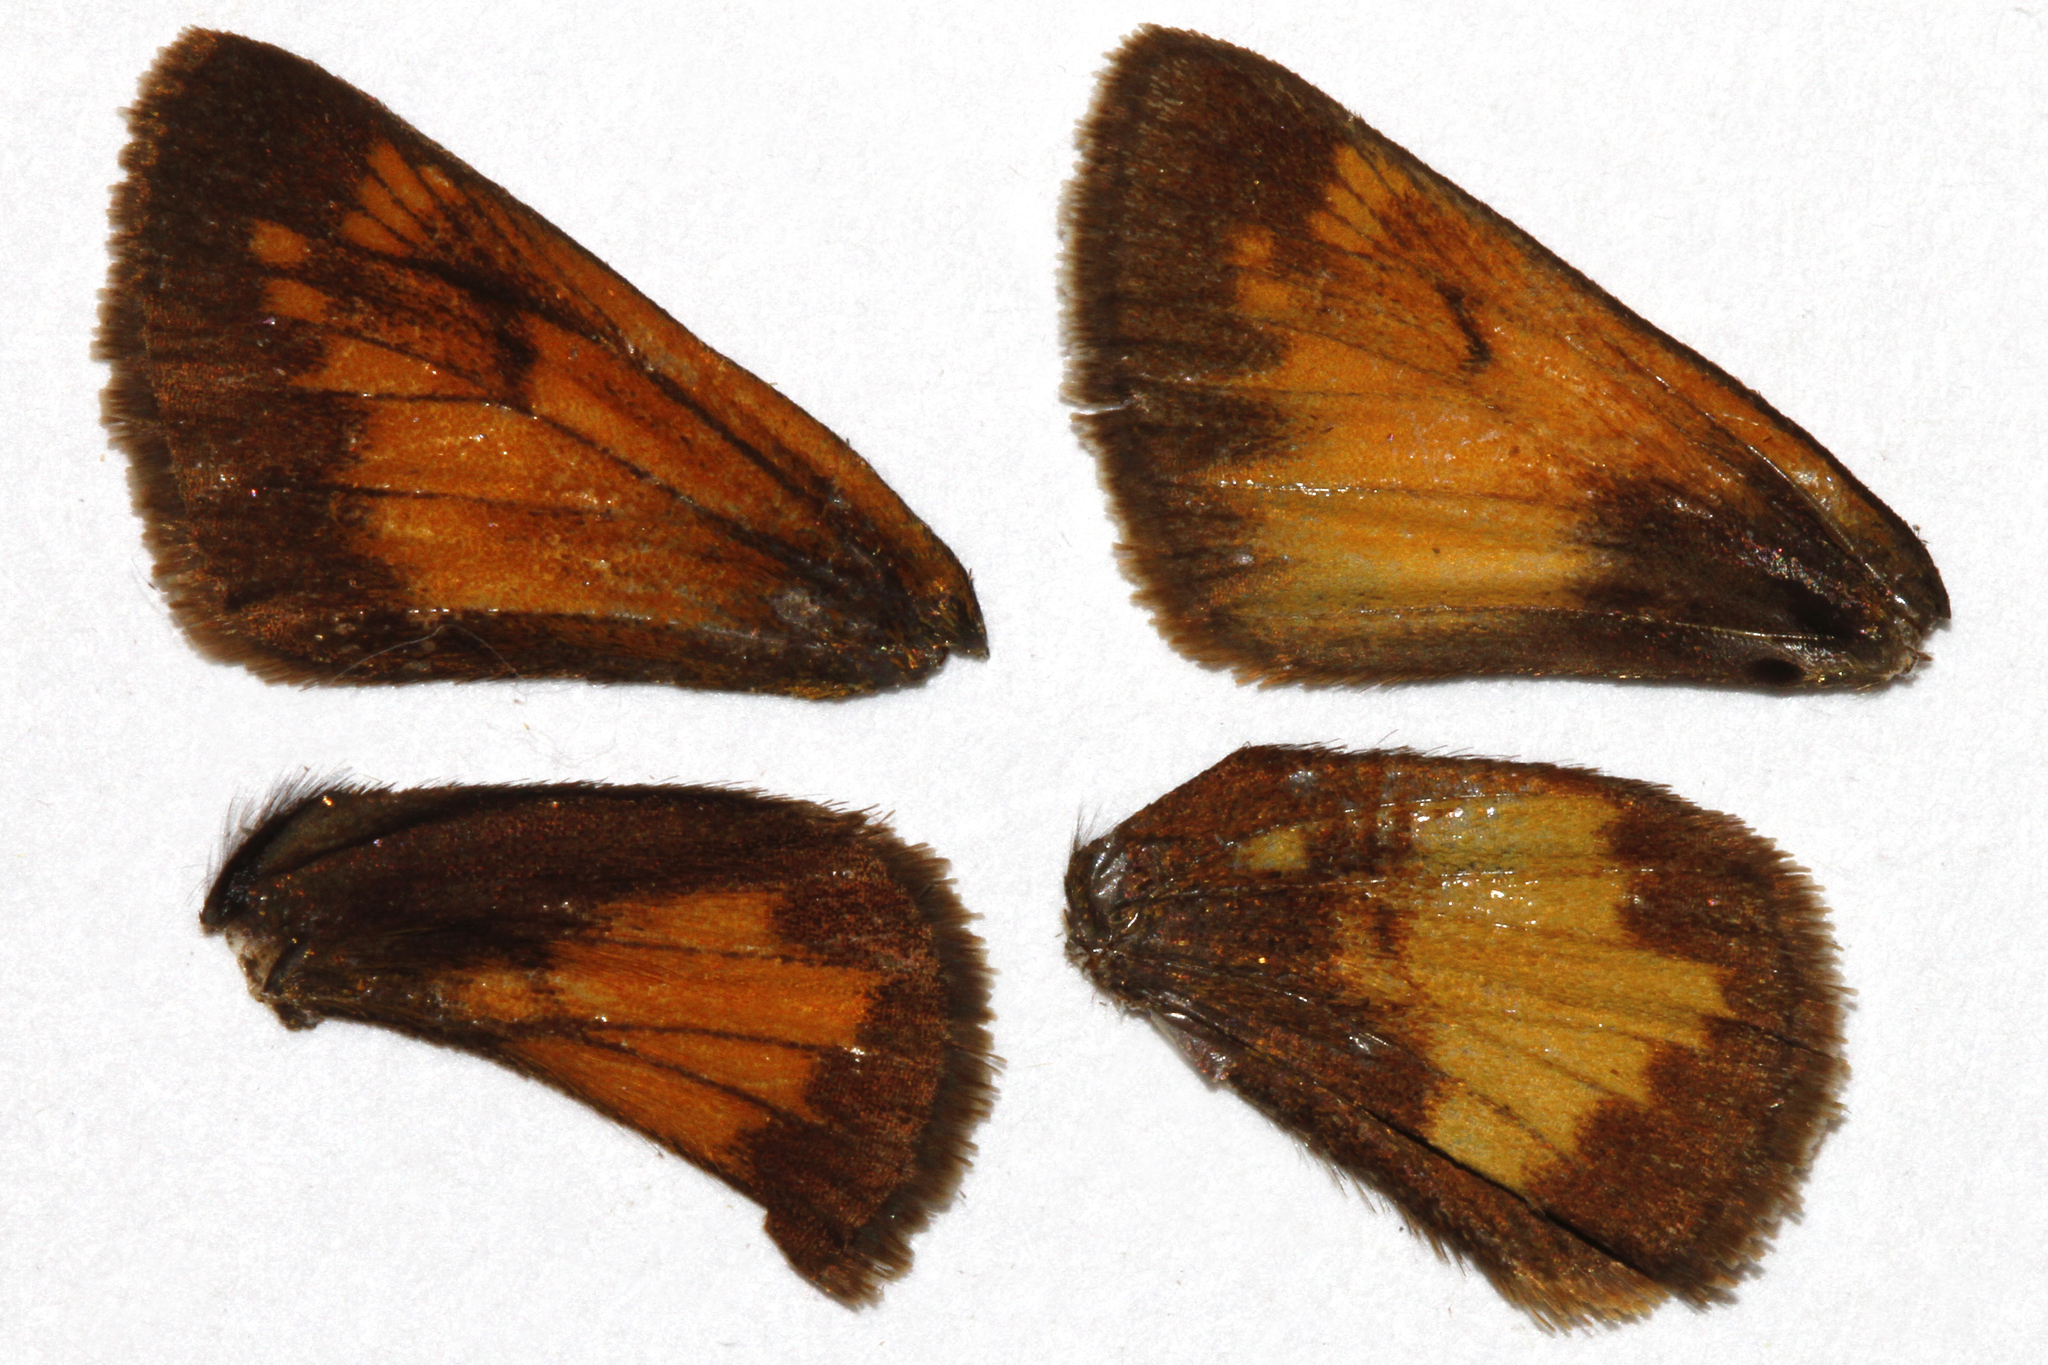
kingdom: Animalia
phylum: Arthropoda
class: Insecta
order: Lepidoptera
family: Hesperiidae
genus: Lon
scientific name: Lon hobomok
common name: Hobomok skipper
